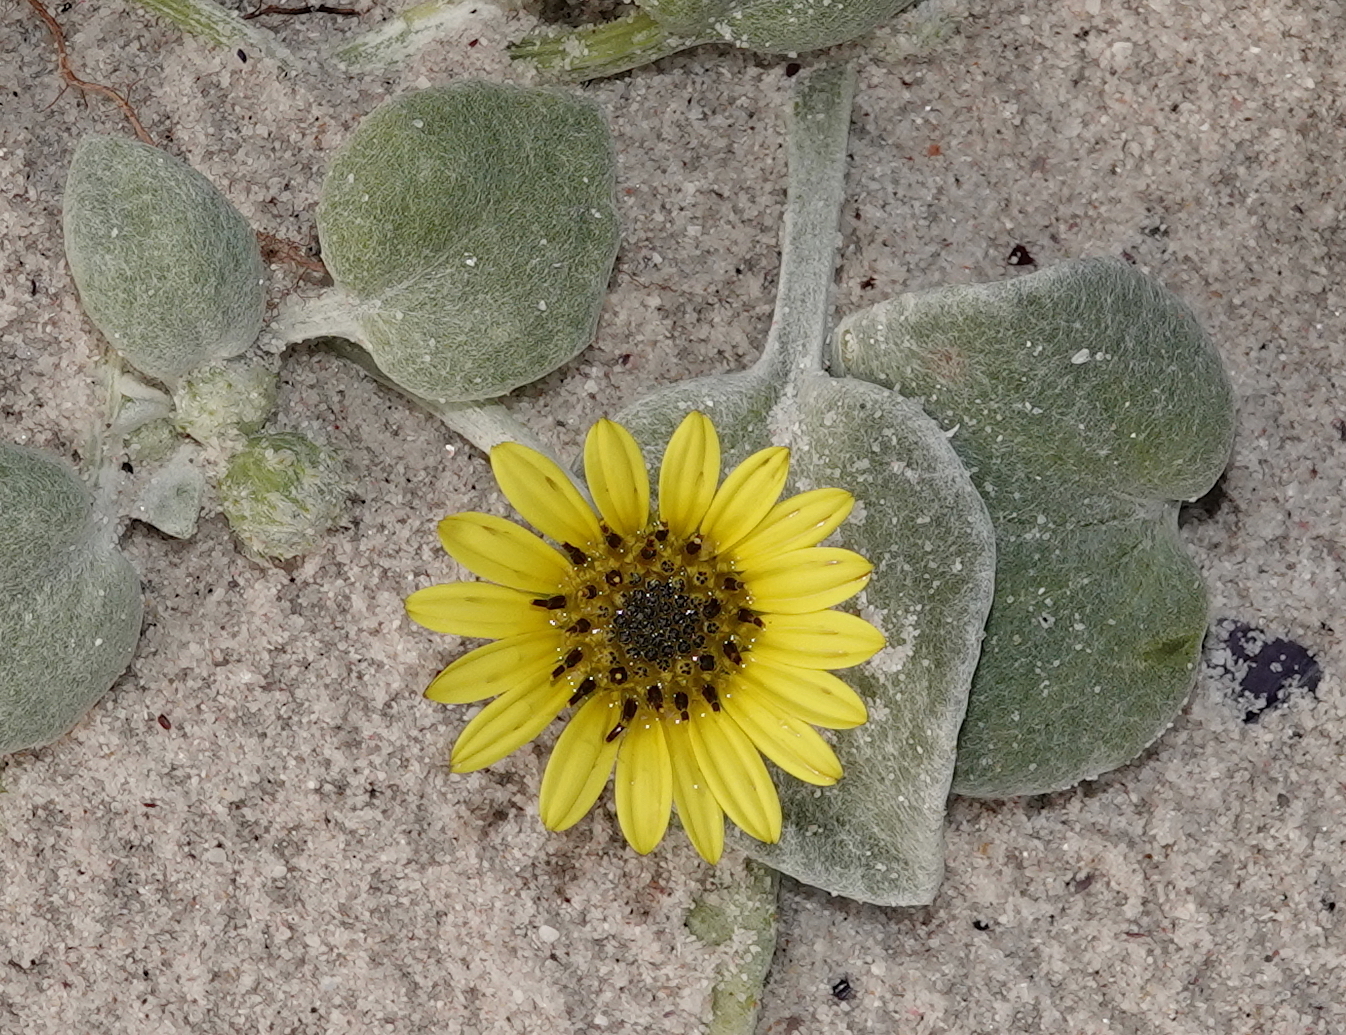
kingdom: Plantae
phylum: Tracheophyta
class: Magnoliopsida
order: Asterales
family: Asteraceae
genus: Arctotheca
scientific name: Arctotheca populifolia
